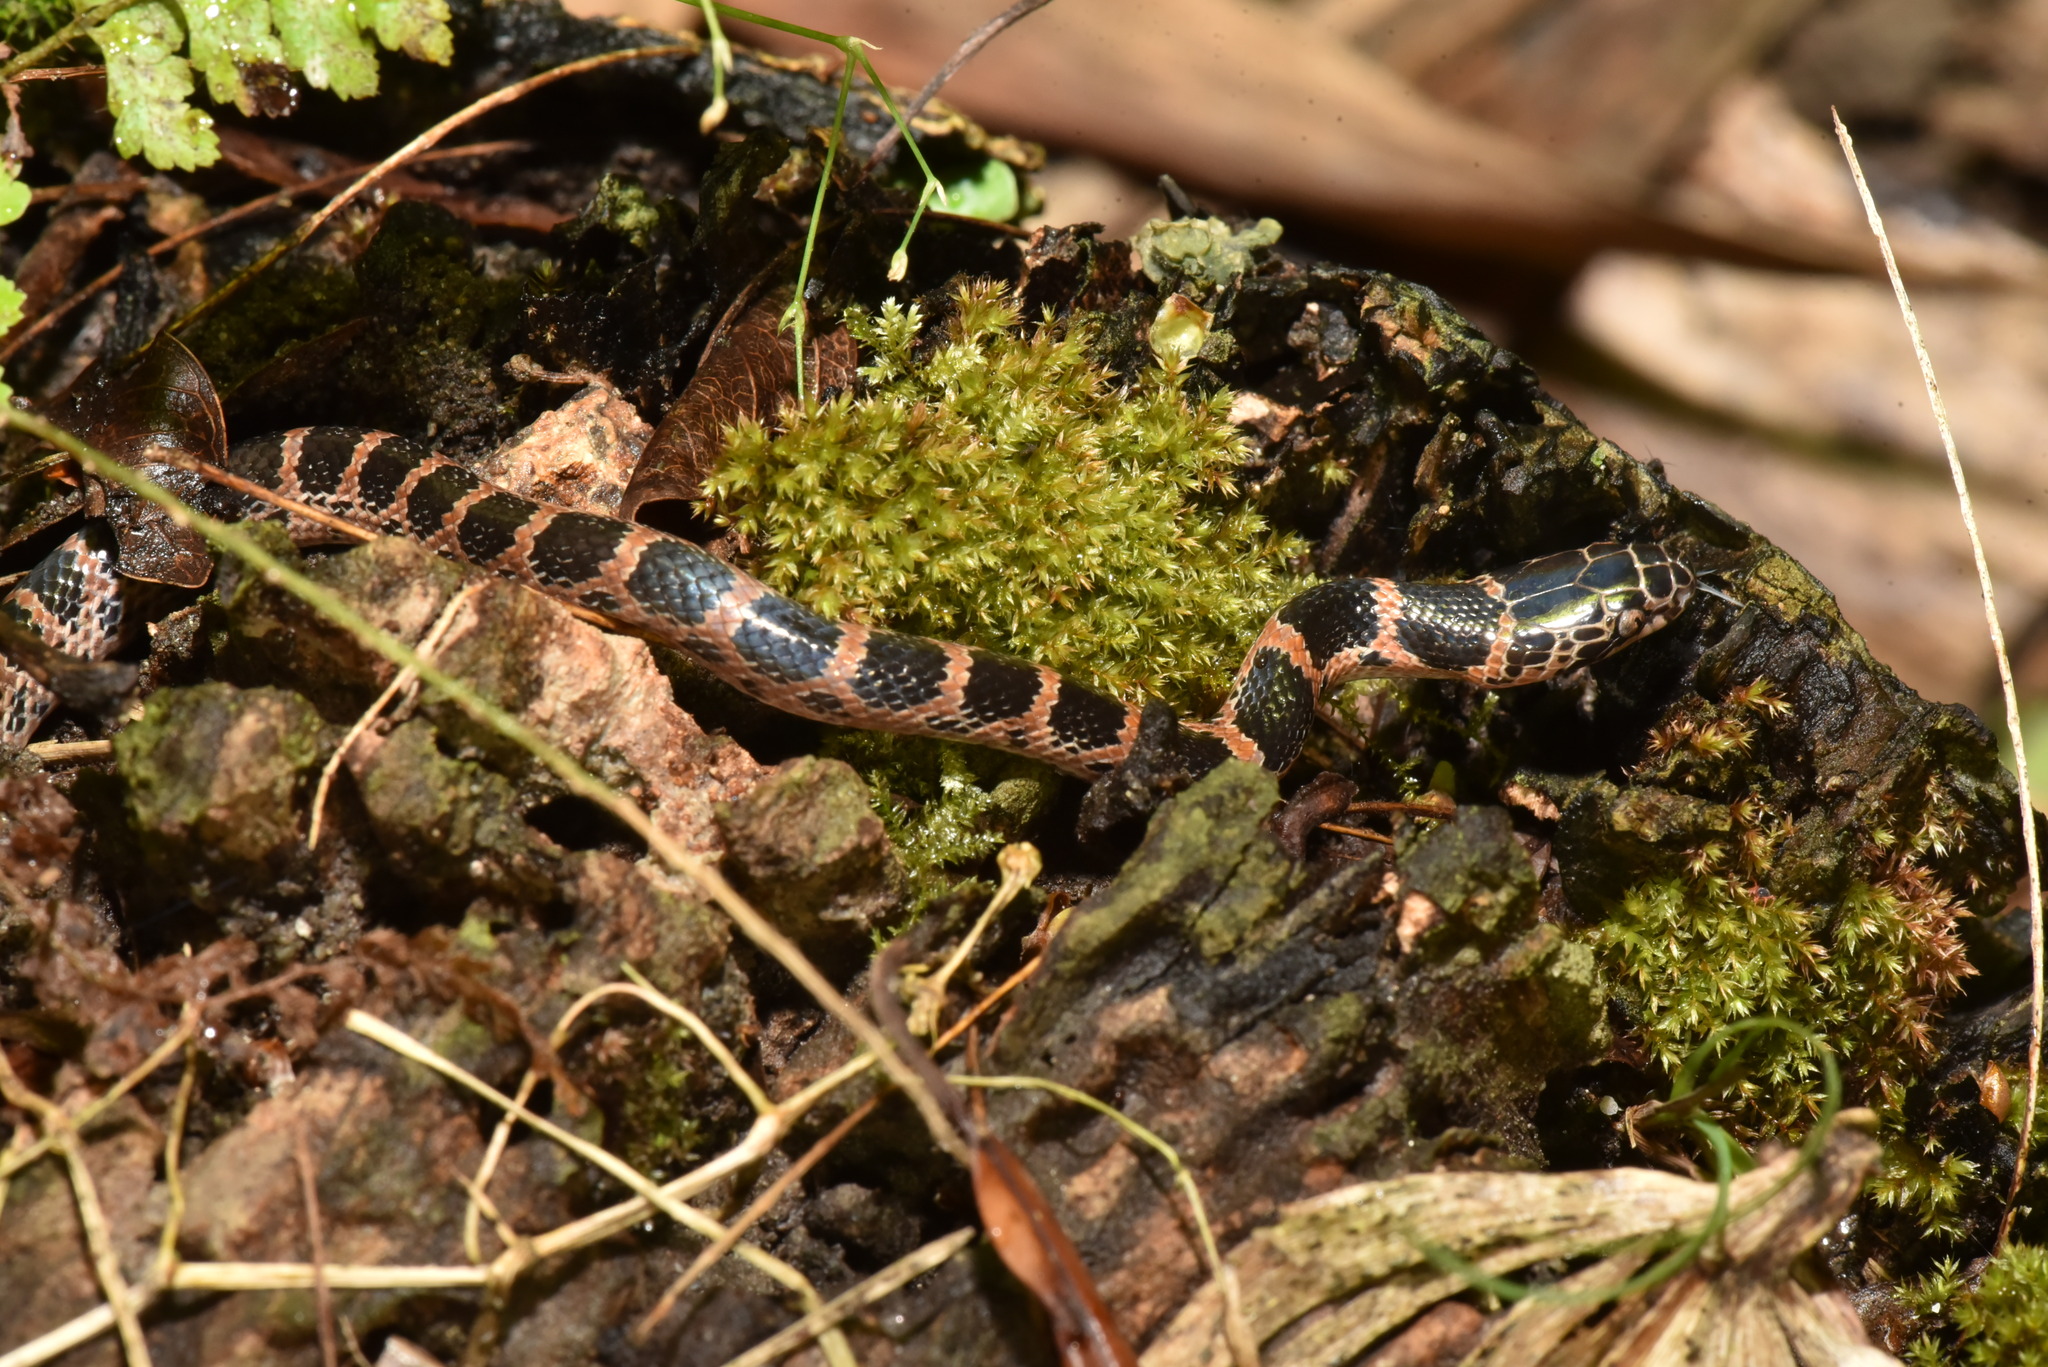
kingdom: Animalia
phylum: Chordata
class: Squamata
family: Colubridae
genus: Lycodon
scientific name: Lycodon rufozonatus
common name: Red-banded snake
